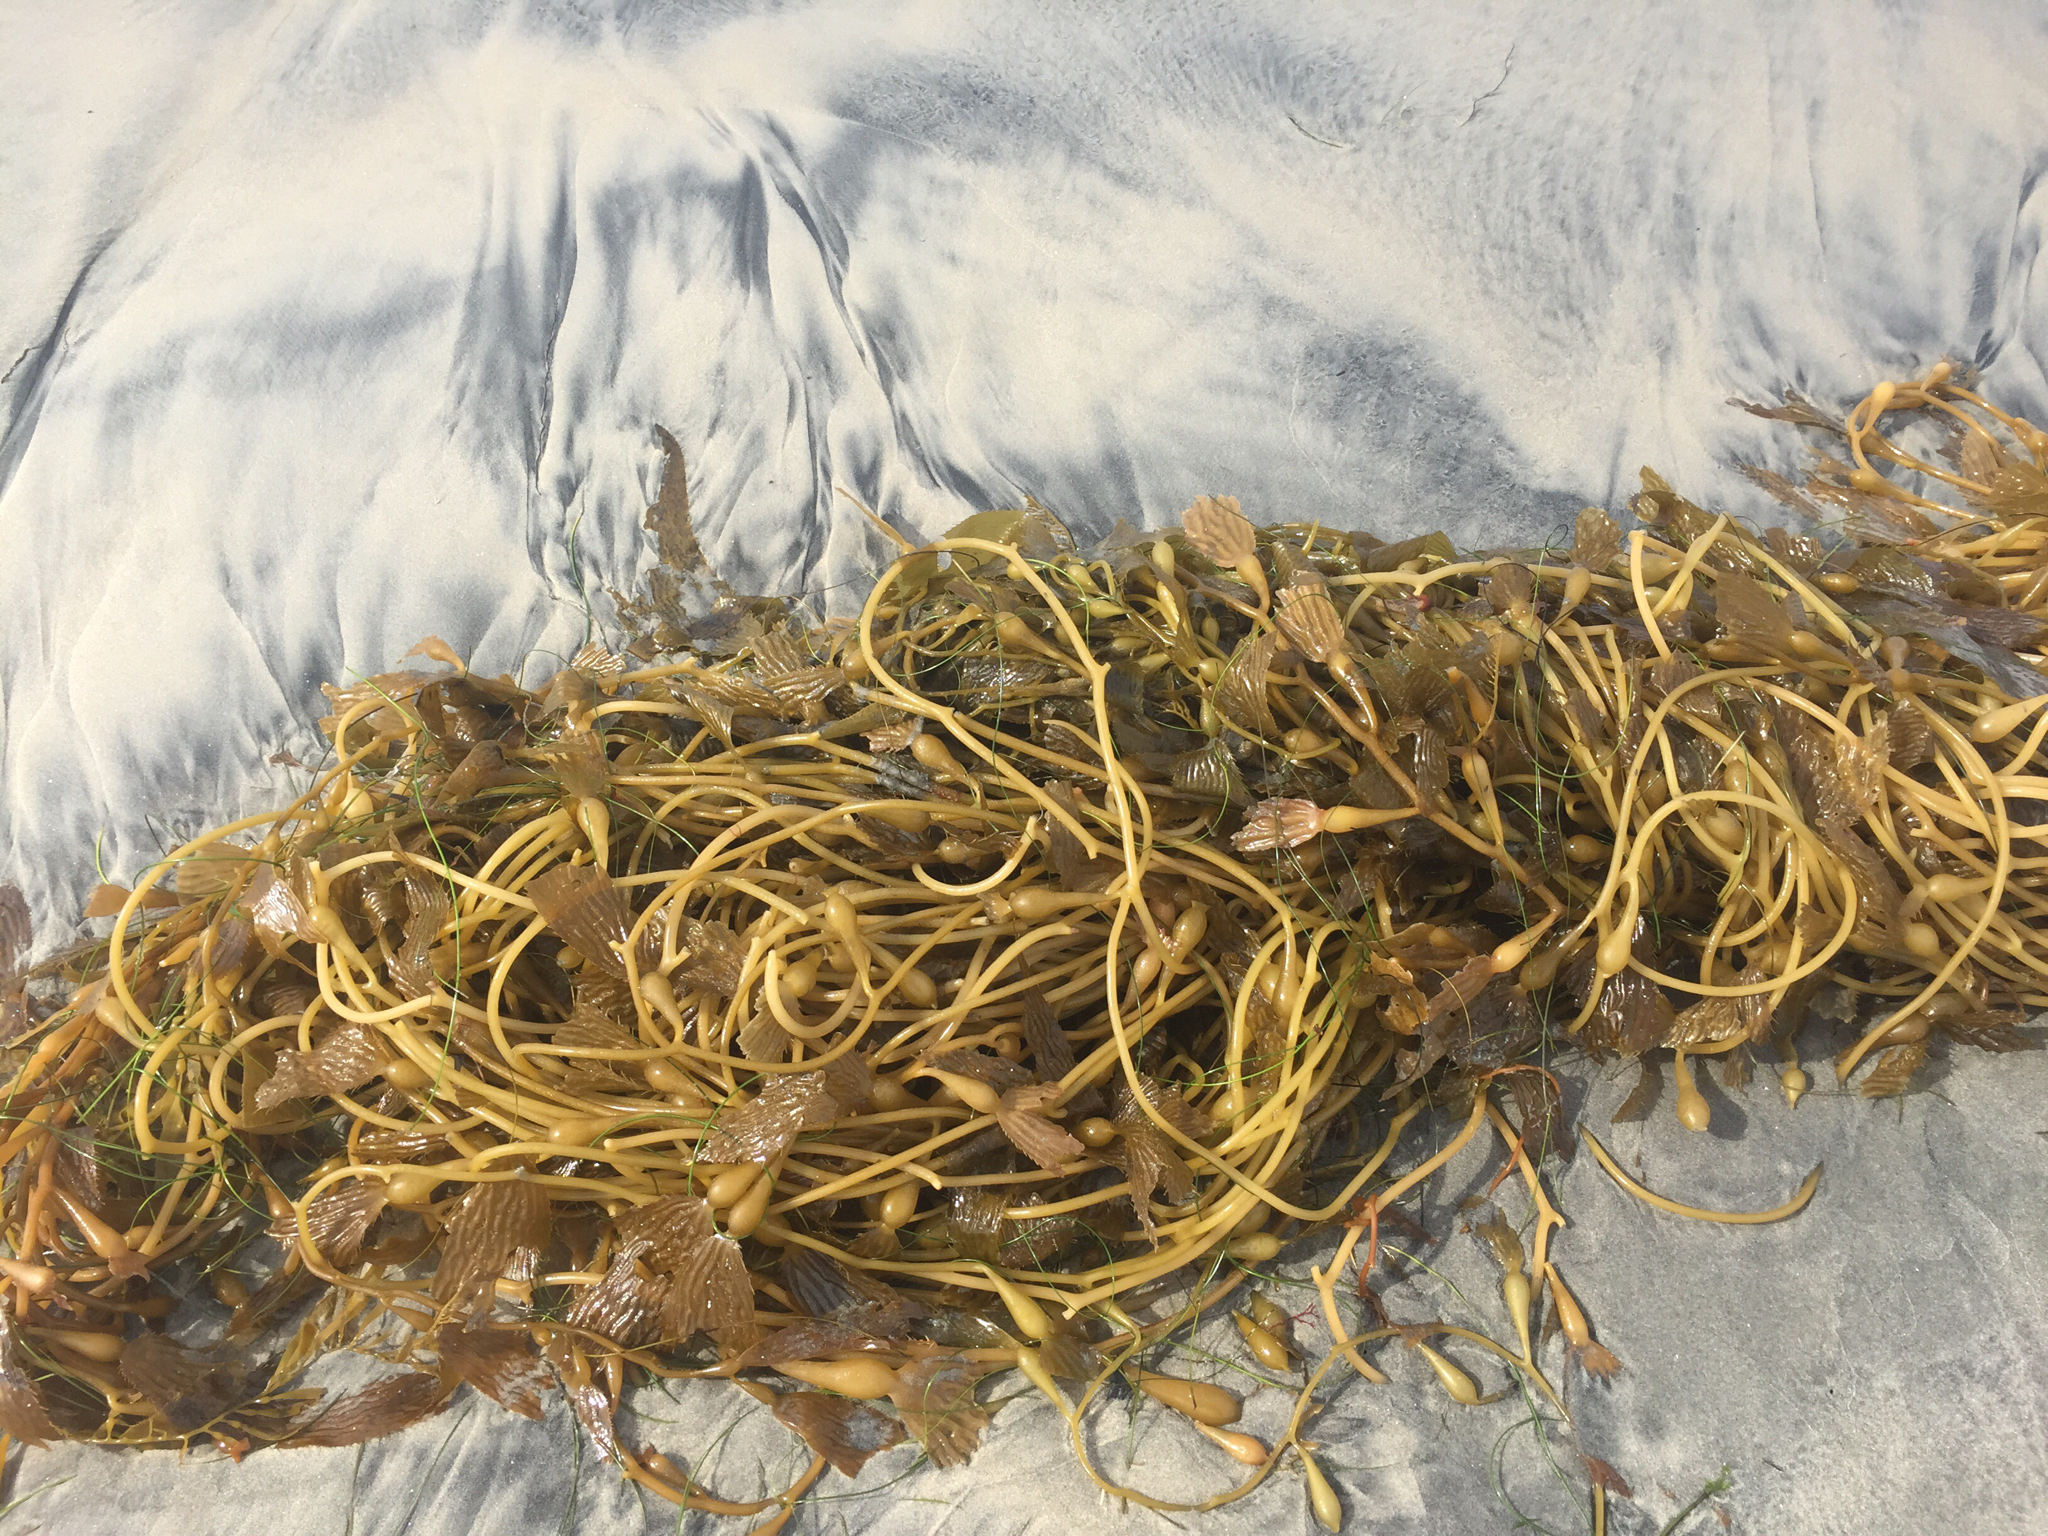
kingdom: Chromista
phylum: Ochrophyta
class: Phaeophyceae
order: Laminariales
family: Laminariaceae
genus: Macrocystis
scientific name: Macrocystis pyrifera
